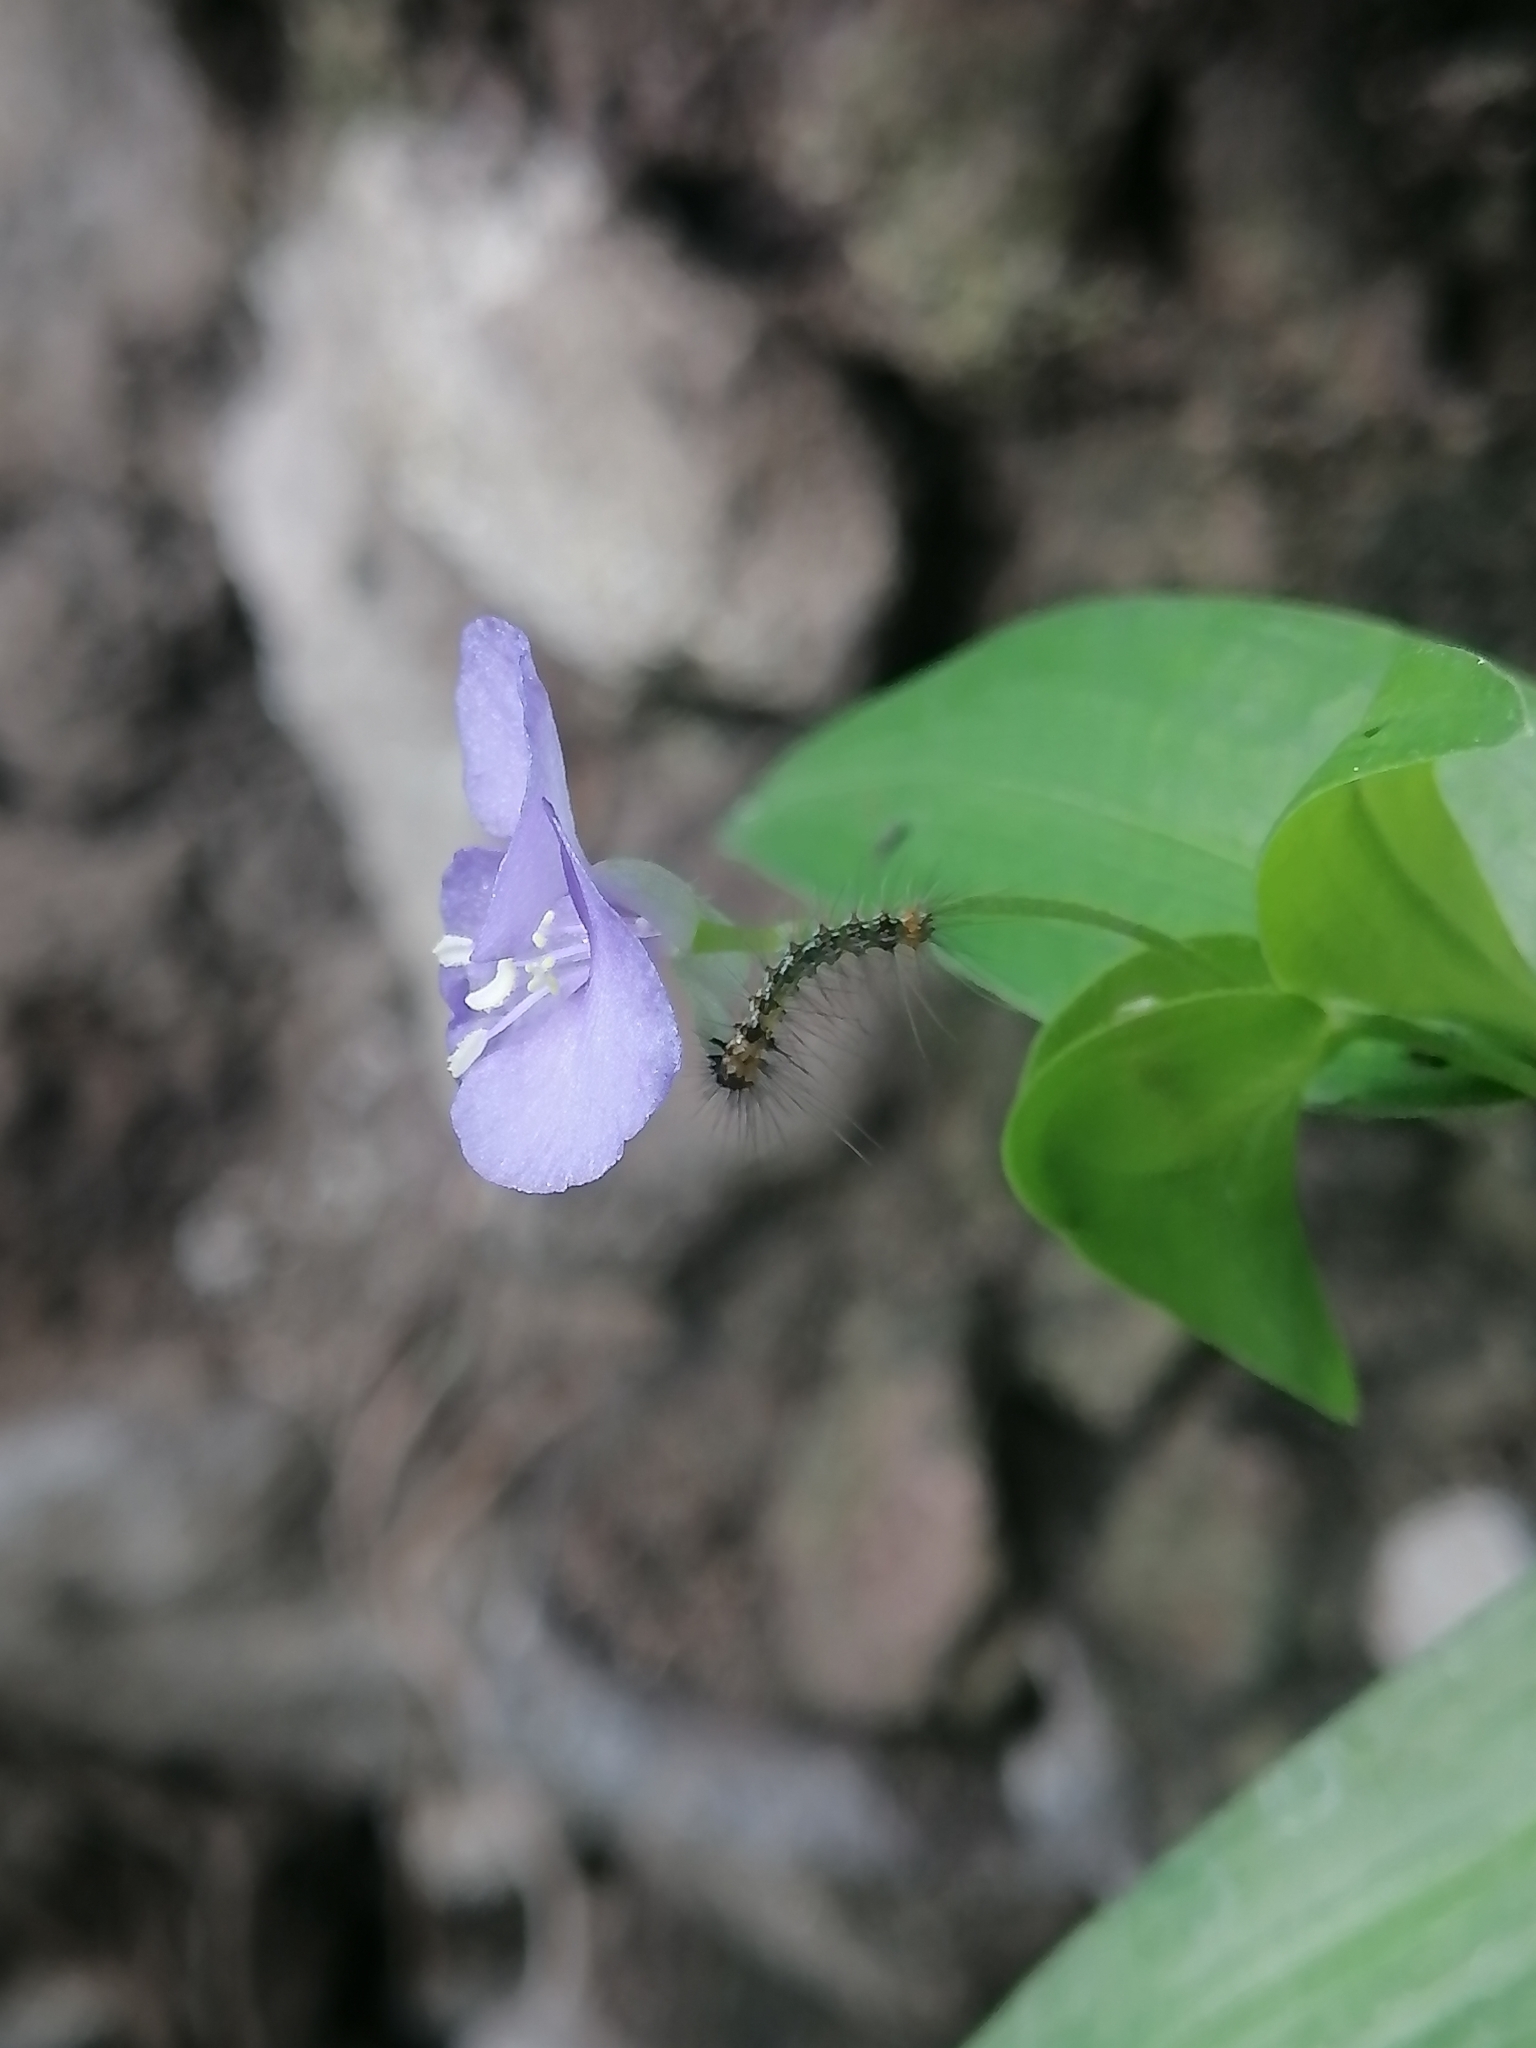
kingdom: Plantae
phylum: Tracheophyta
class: Liliopsida
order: Commelinales
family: Commelinaceae
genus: Commelina
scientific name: Commelina diffusa
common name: Climbing dayflower
